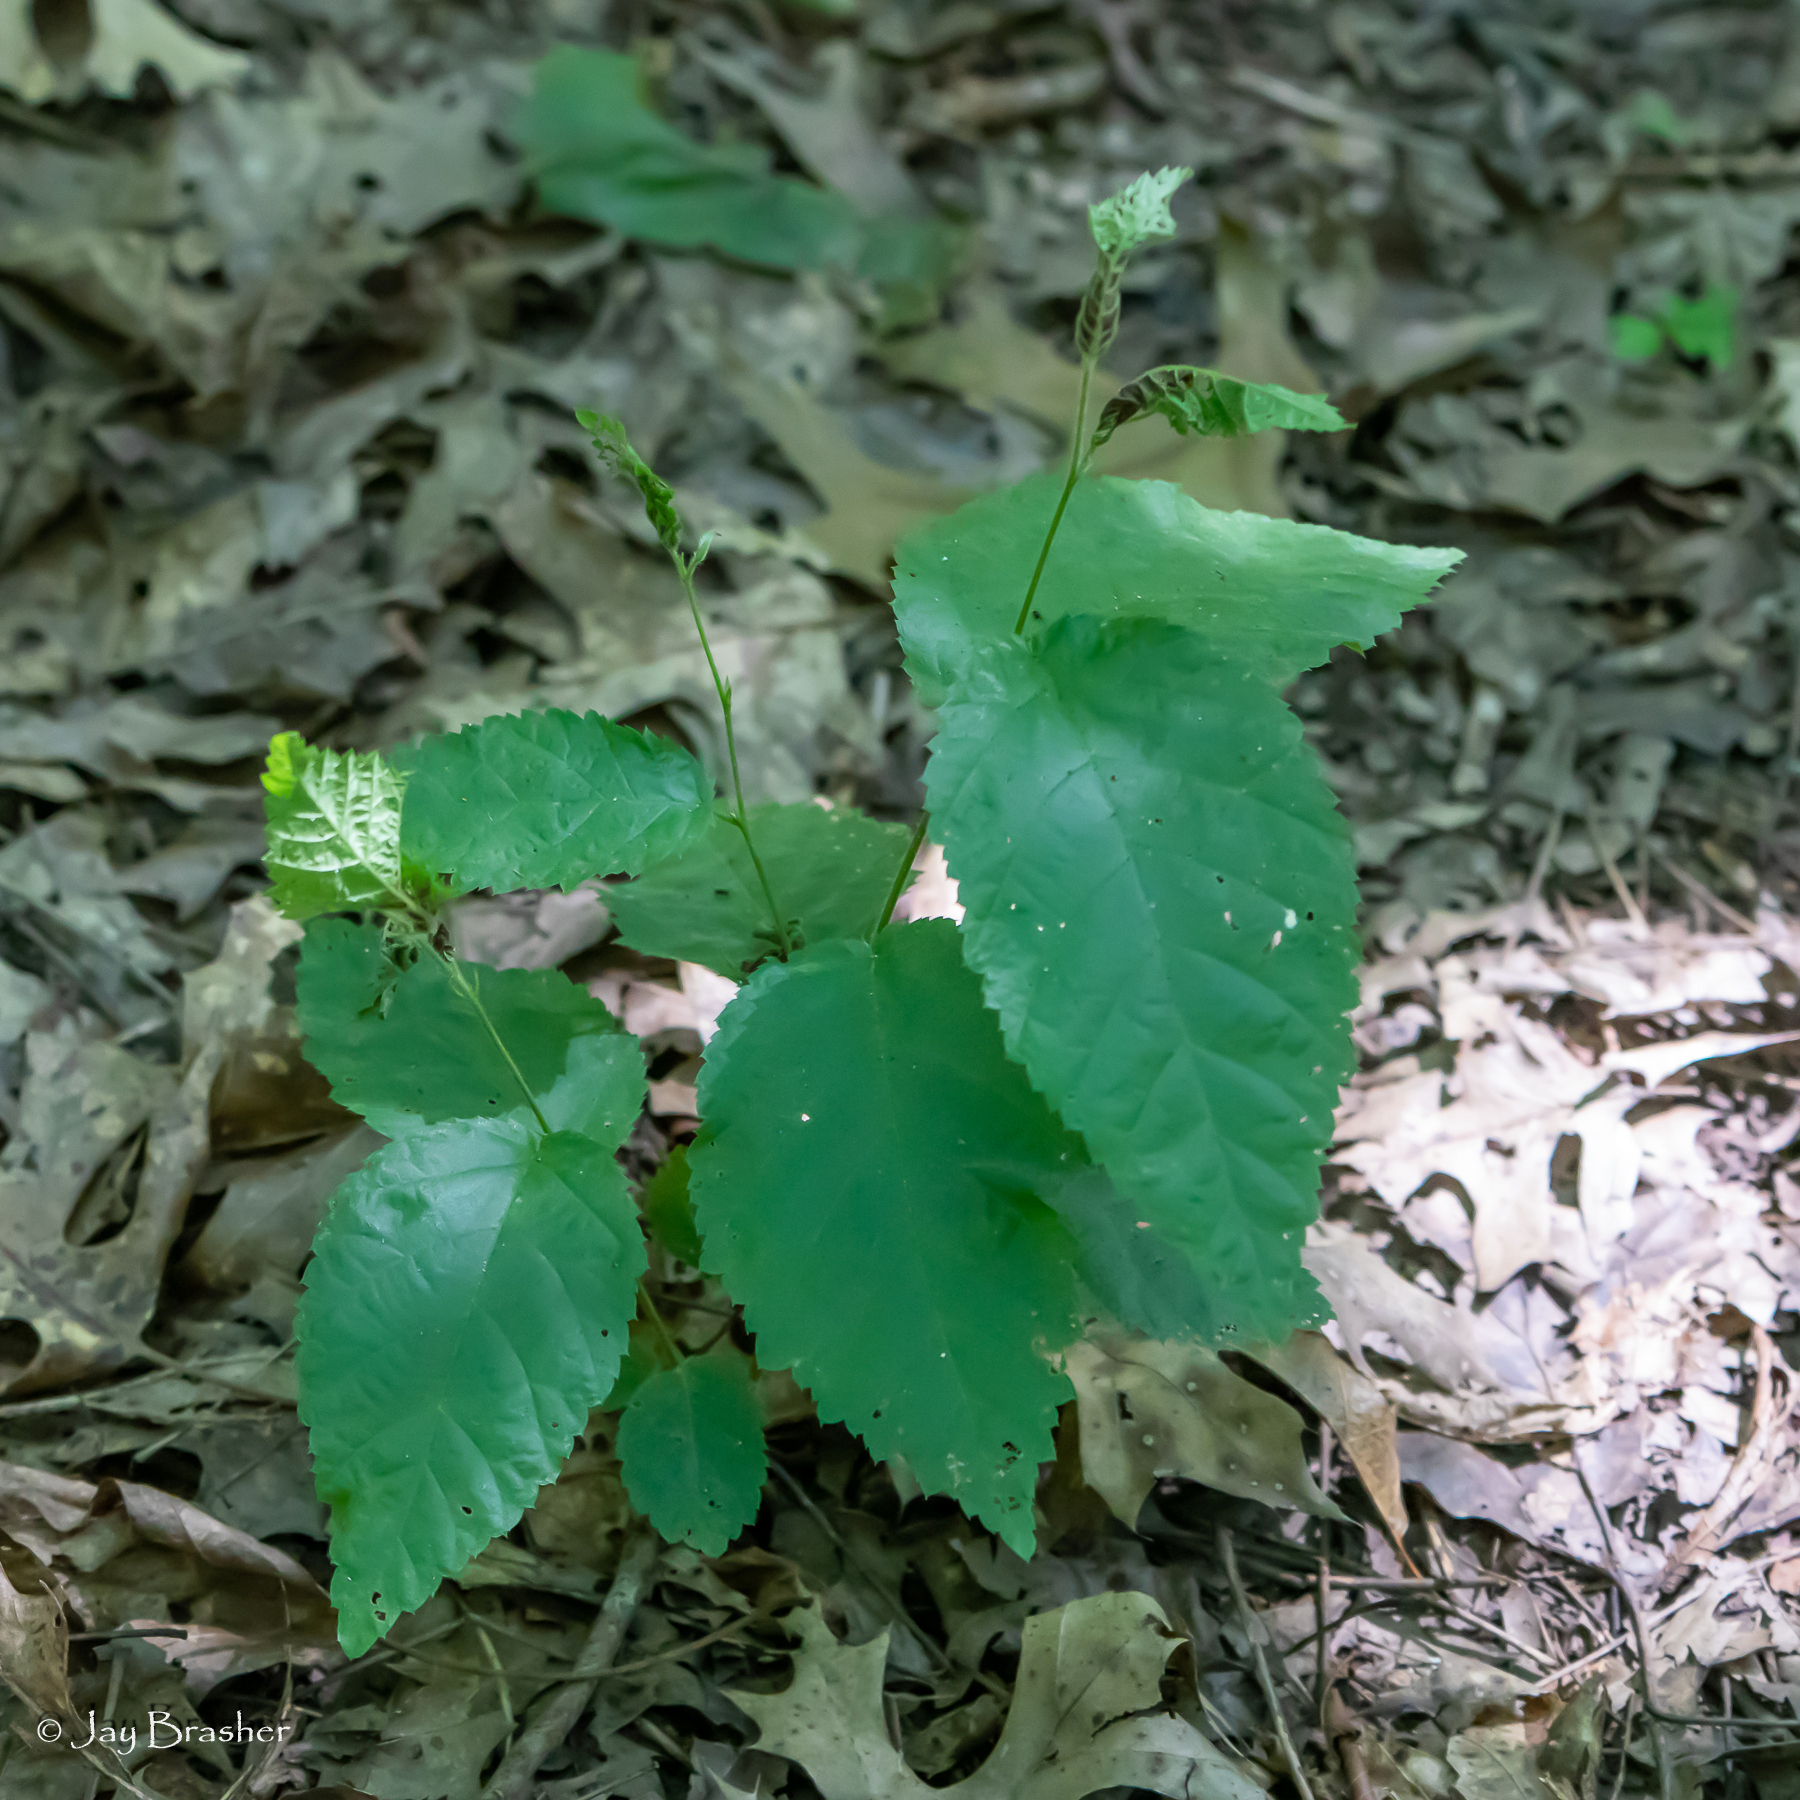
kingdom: Plantae
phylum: Tracheophyta
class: Magnoliopsida
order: Fagales
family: Betulaceae
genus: Corylus
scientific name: Corylus americana
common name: American hazel
